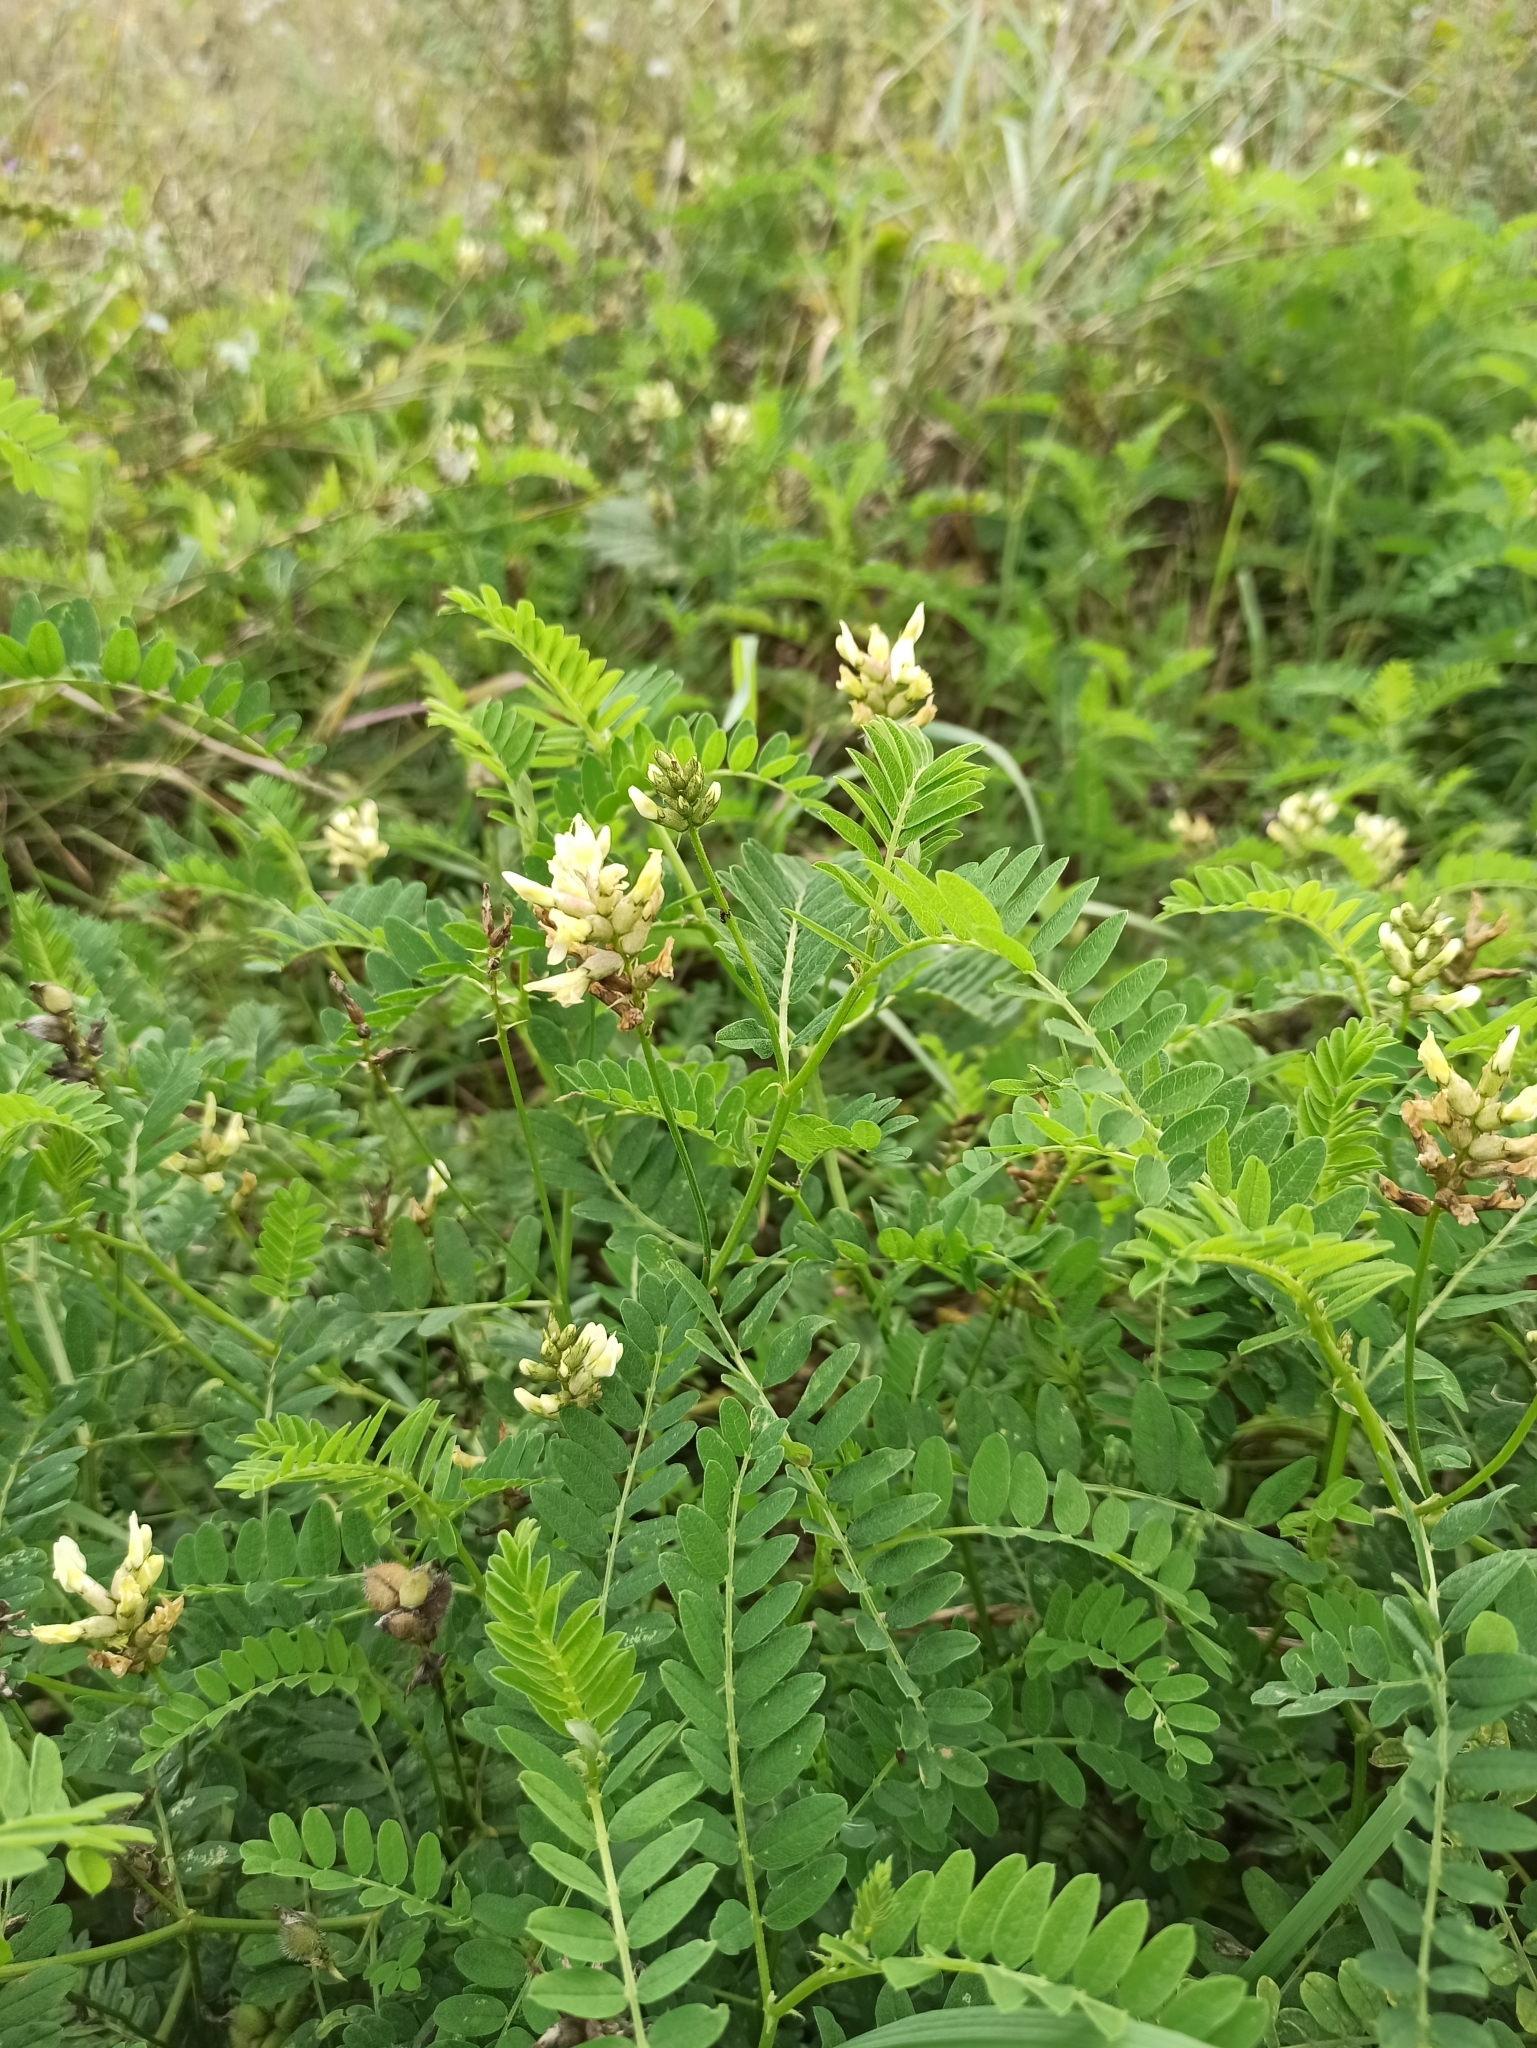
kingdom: Plantae
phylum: Tracheophyta
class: Magnoliopsida
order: Fabales
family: Fabaceae
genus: Astragalus
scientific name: Astragalus cicer
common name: Chick-pea milk-vetch
